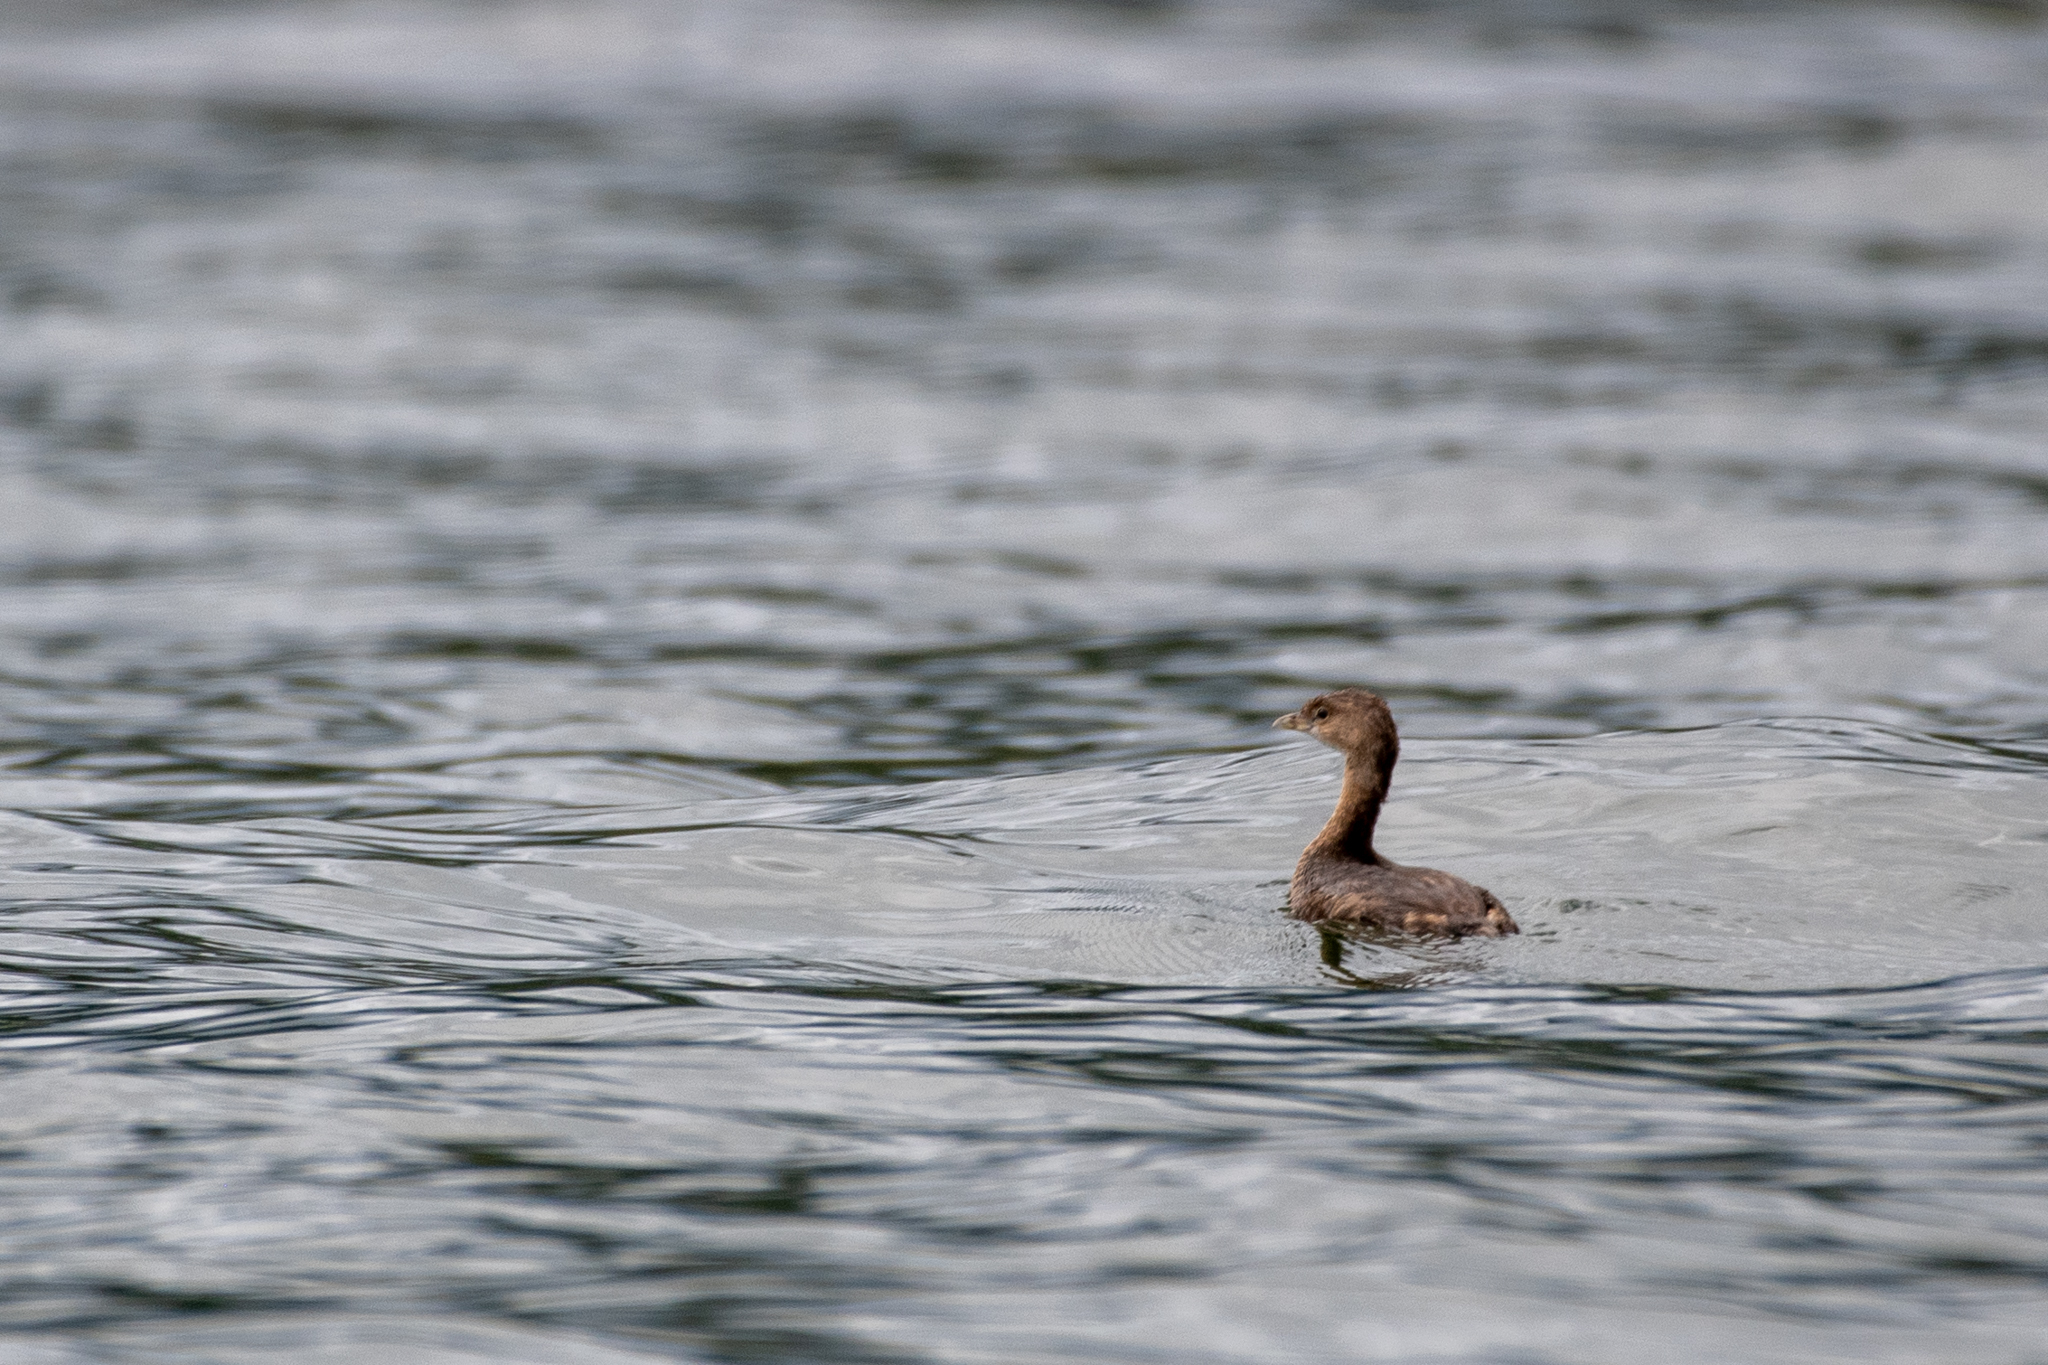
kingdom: Animalia
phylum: Chordata
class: Aves
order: Podicipediformes
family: Podicipedidae
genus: Podilymbus
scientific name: Podilymbus podiceps
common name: Pied-billed grebe
